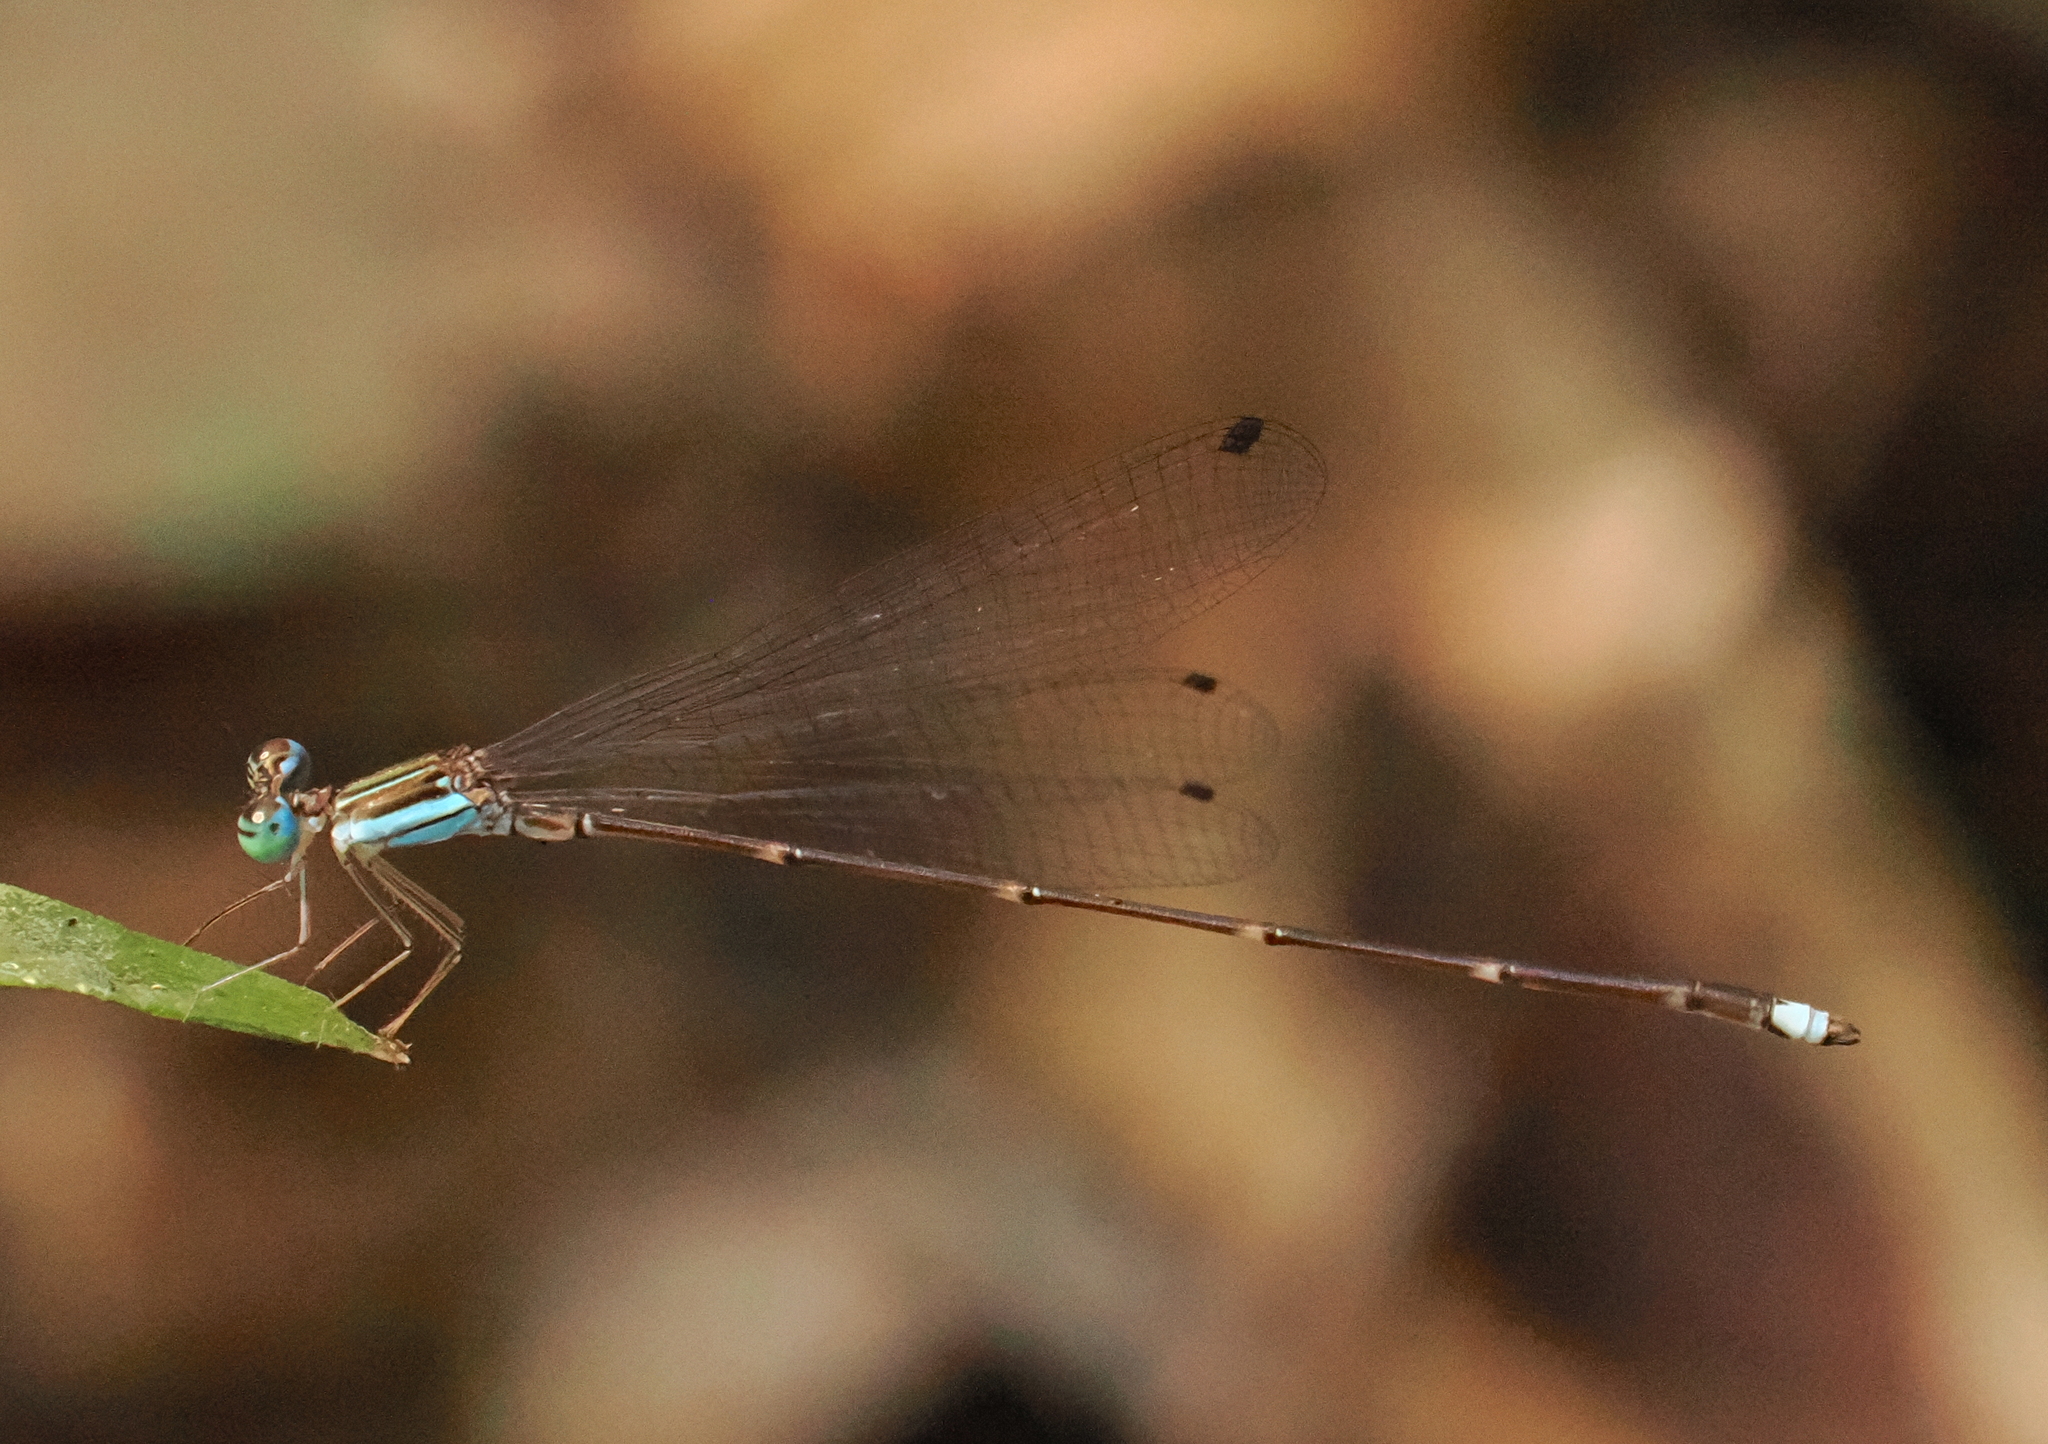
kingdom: Animalia
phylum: Arthropoda
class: Insecta
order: Odonata
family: Platycnemididae
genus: Coeliccia
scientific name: Coeliccia kazukoae
